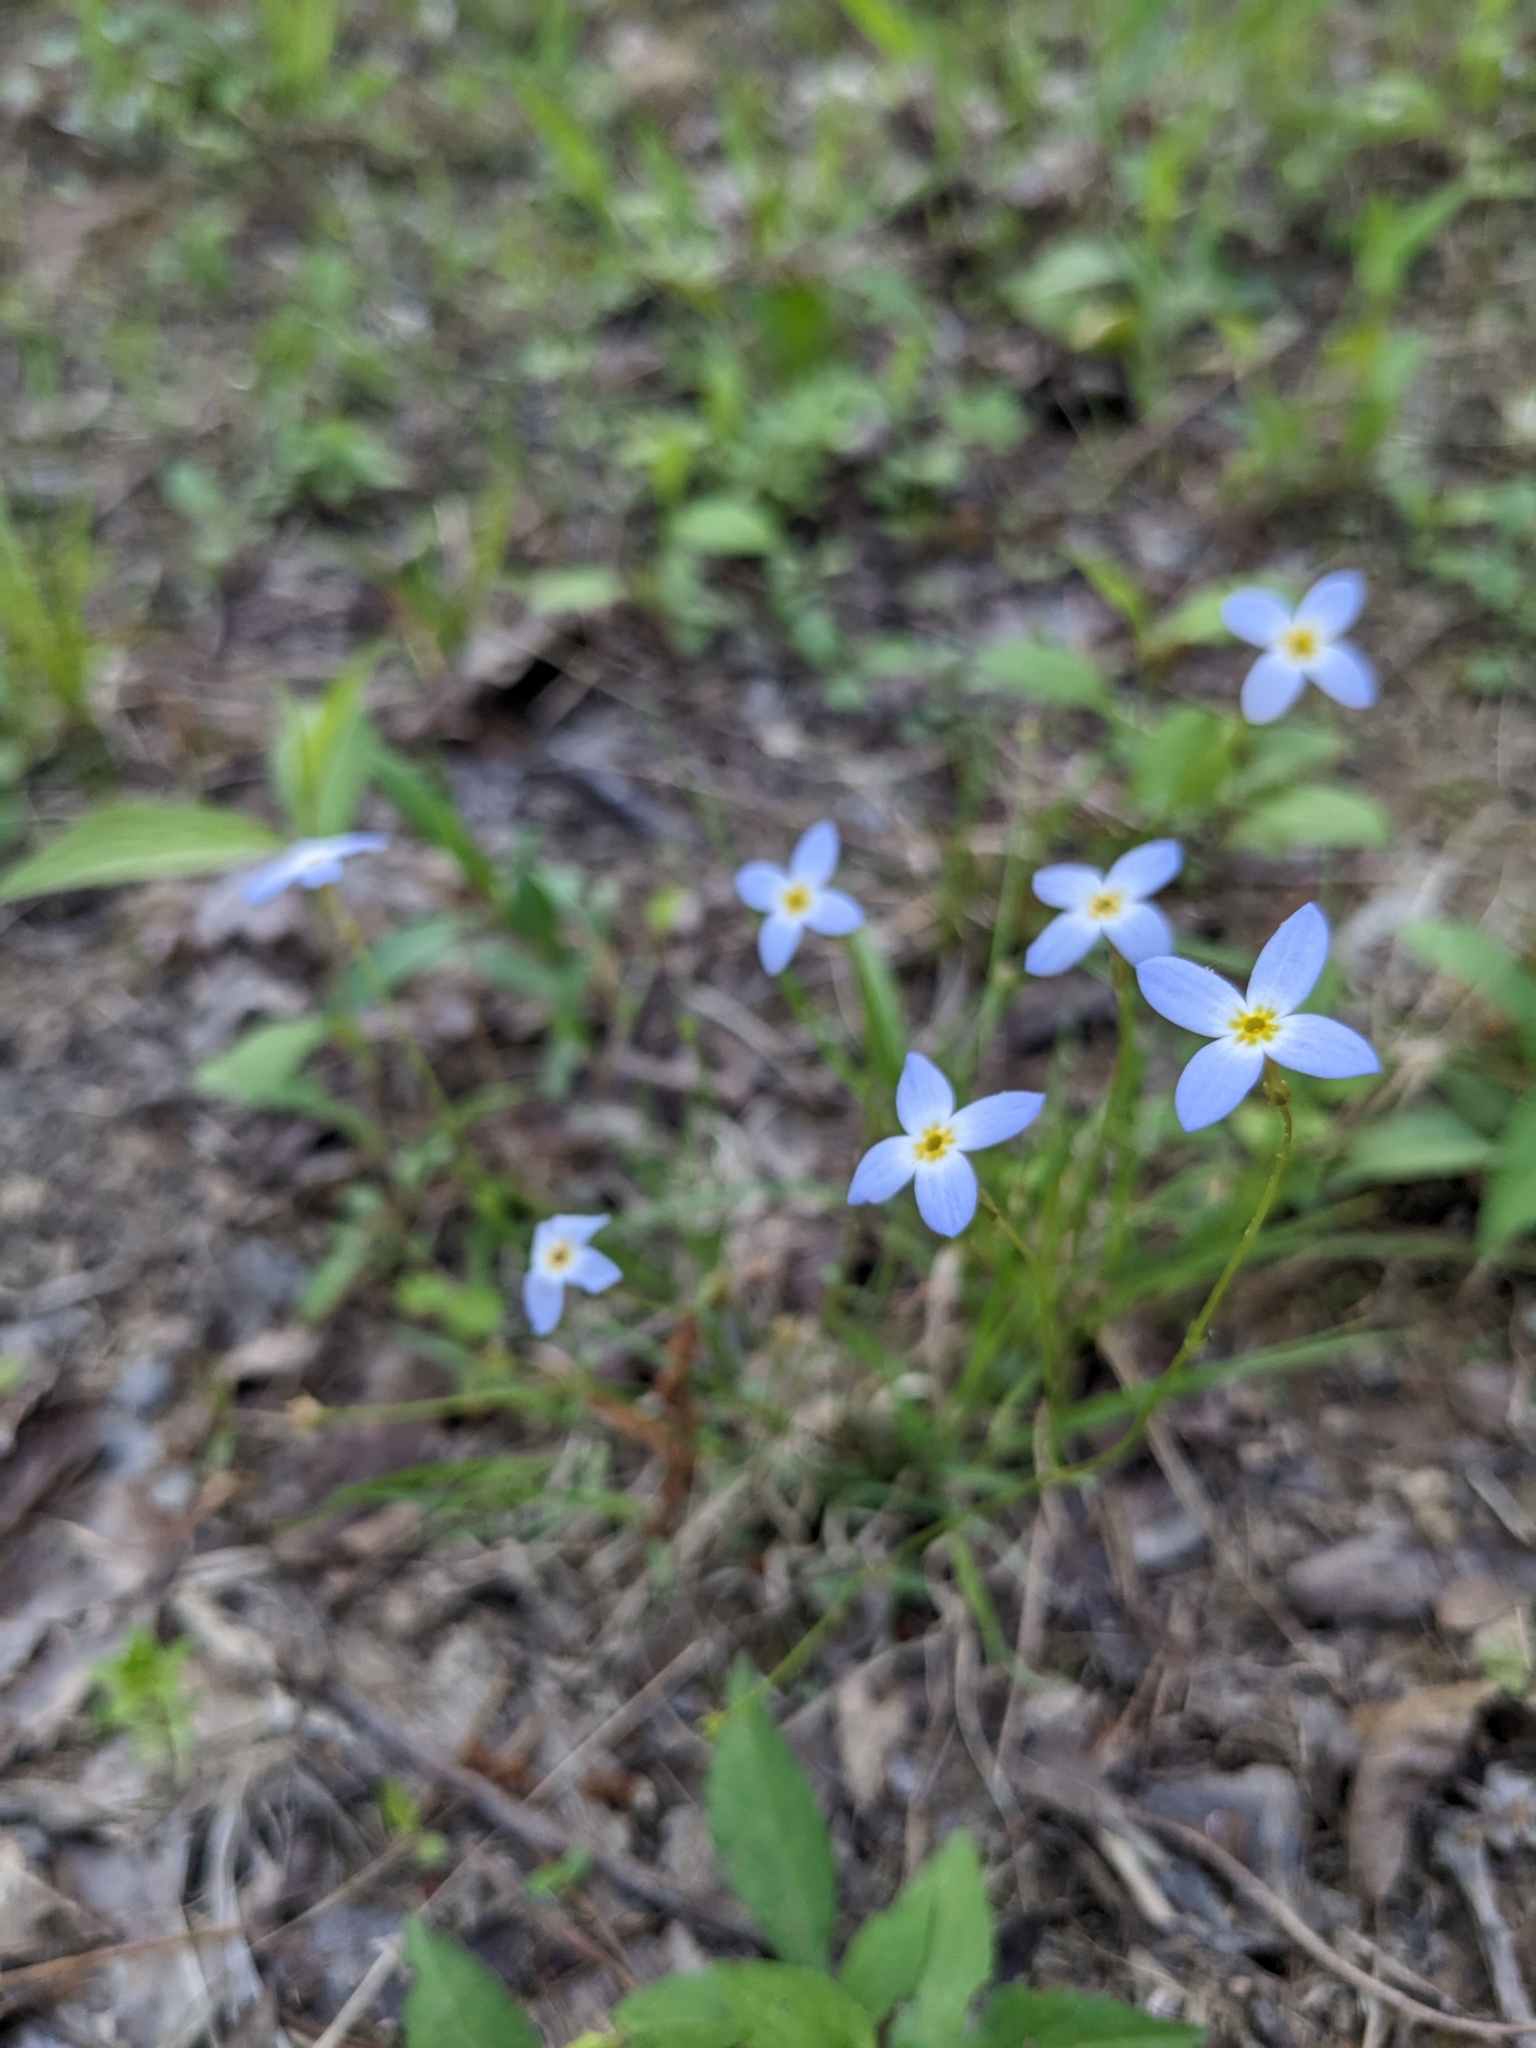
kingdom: Plantae
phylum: Tracheophyta
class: Magnoliopsida
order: Gentianales
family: Rubiaceae
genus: Houstonia
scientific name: Houstonia caerulea
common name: Bluets
